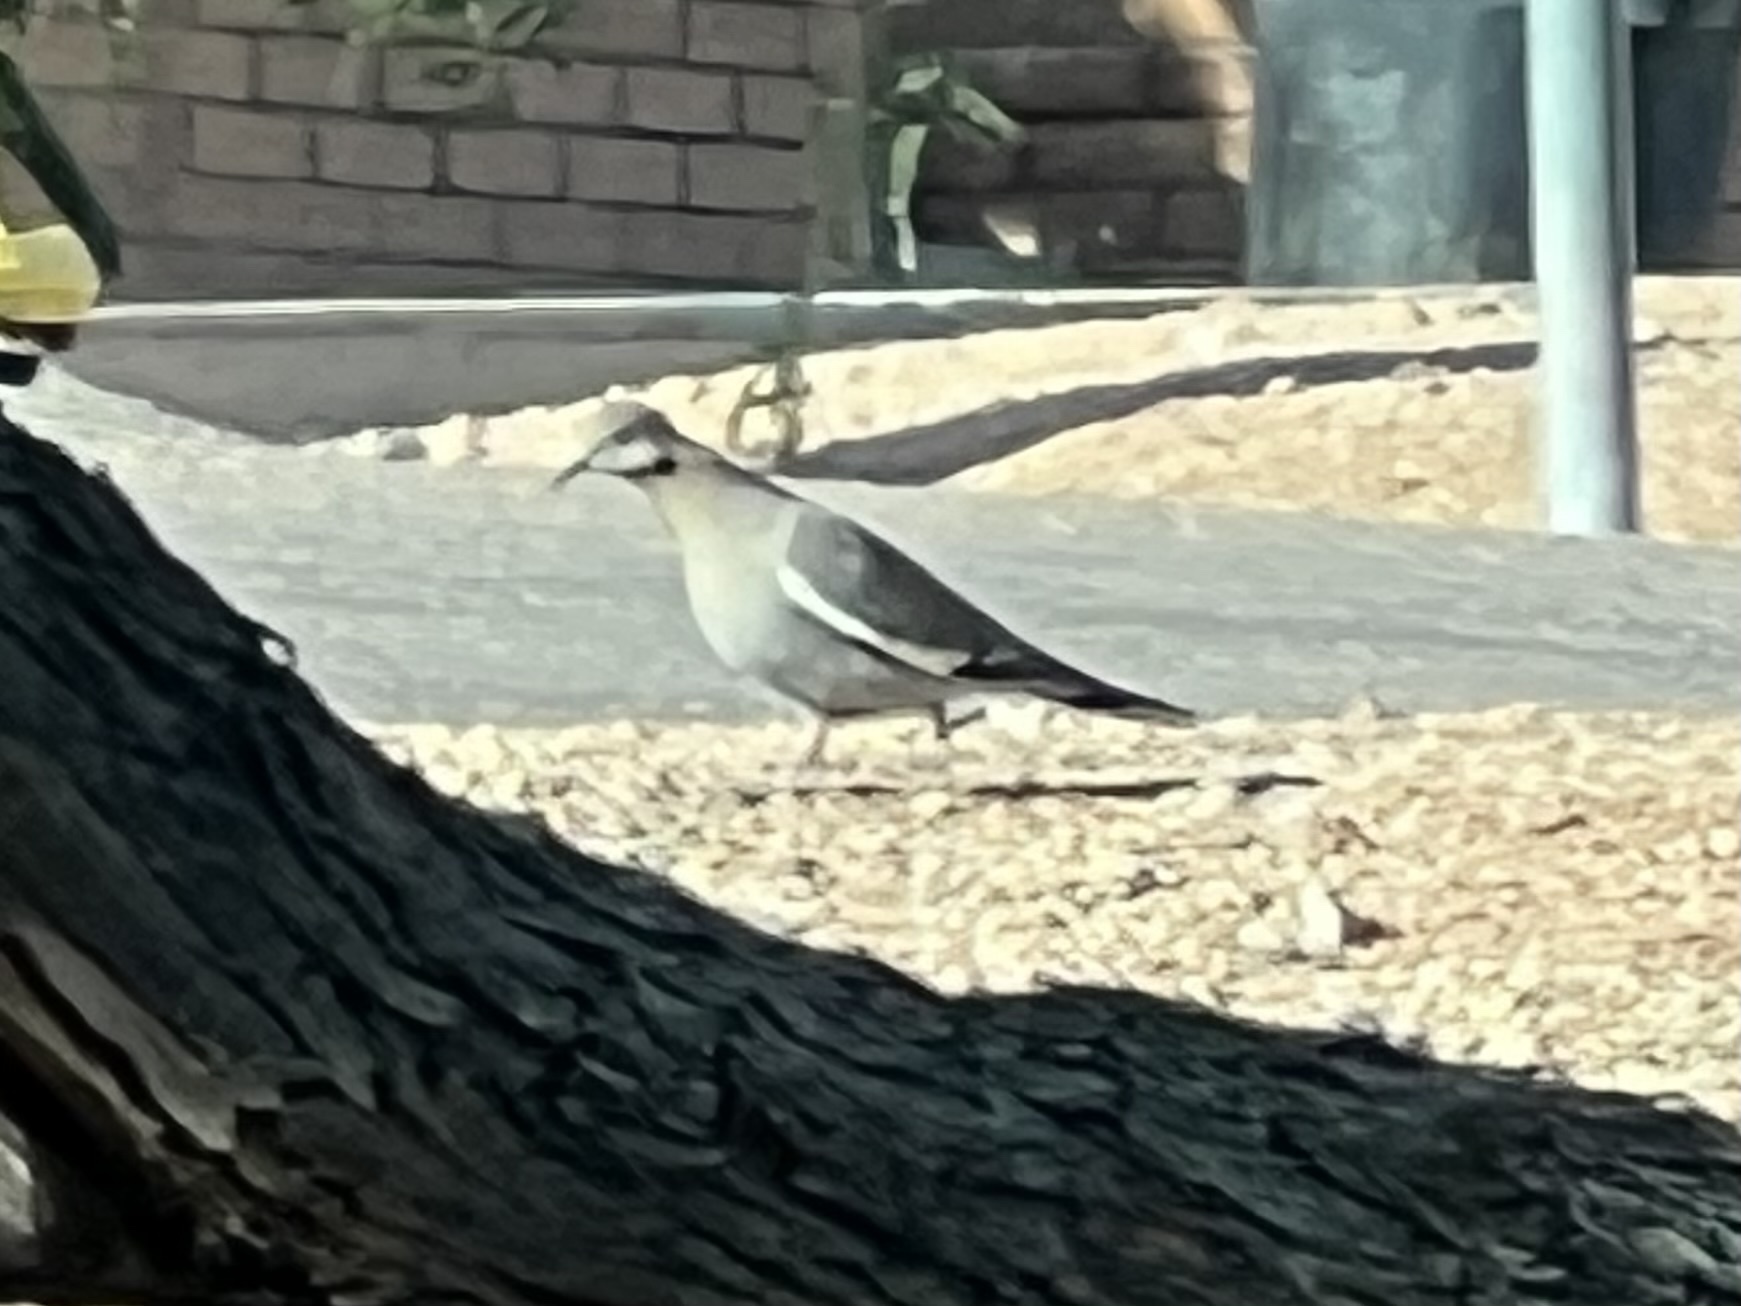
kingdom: Animalia
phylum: Chordata
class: Aves
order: Columbiformes
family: Columbidae
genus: Zenaida
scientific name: Zenaida asiatica
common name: White-winged dove
